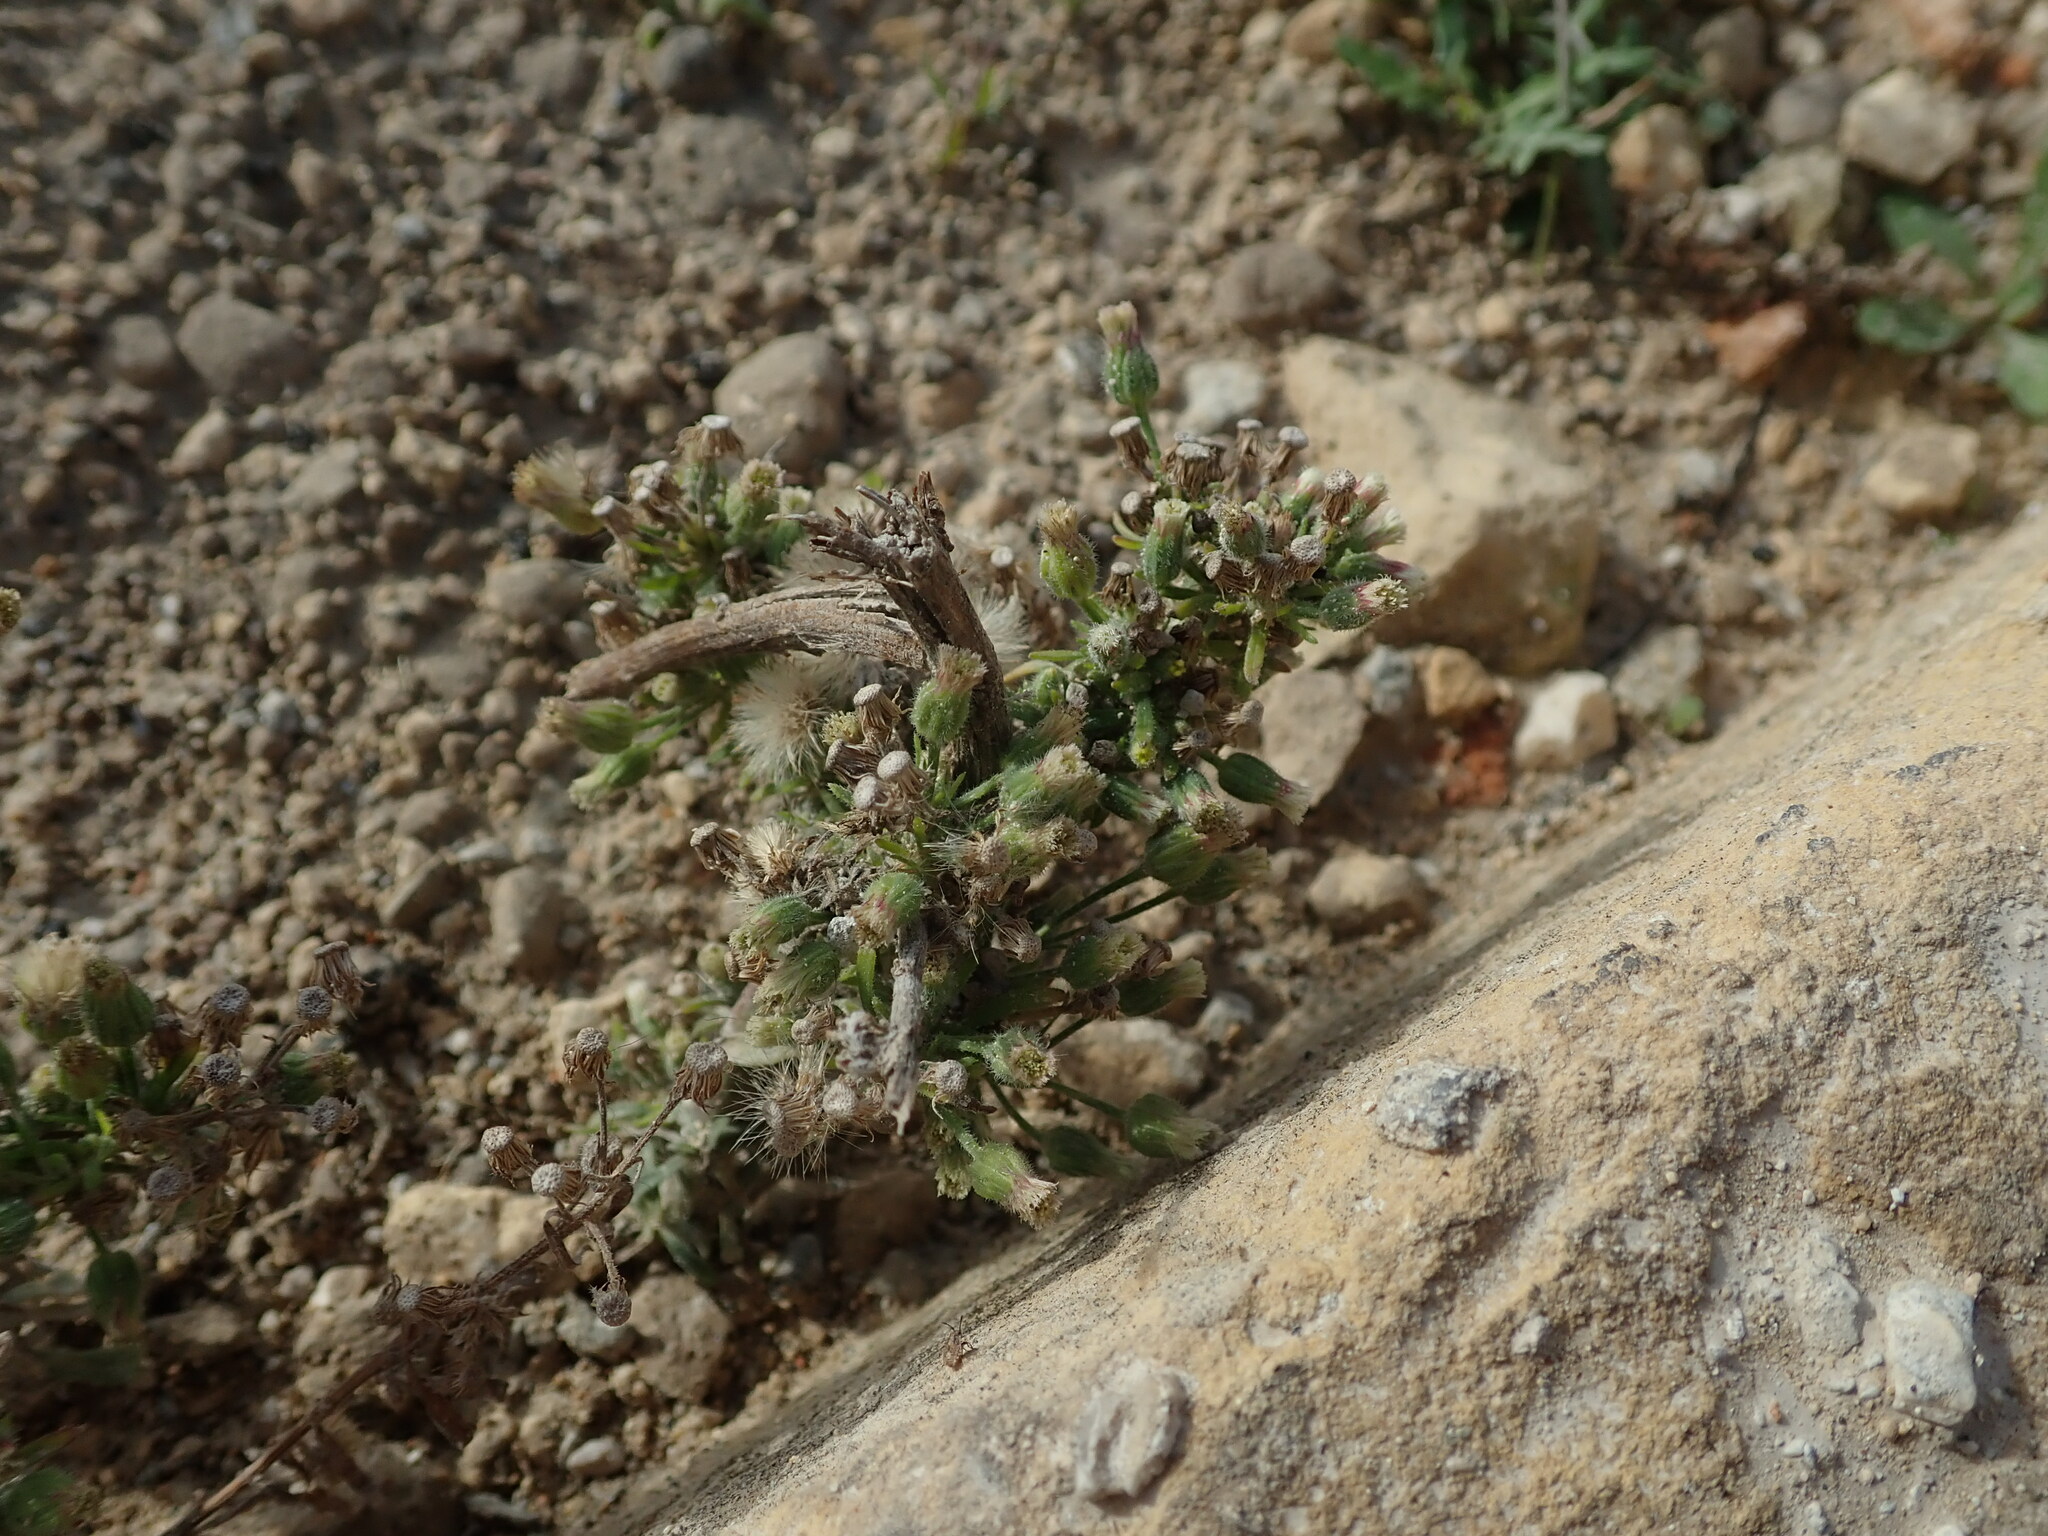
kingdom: Plantae
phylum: Tracheophyta
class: Magnoliopsida
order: Asterales
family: Asteraceae
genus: Erigeron
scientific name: Erigeron bonariensis
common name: Argentine fleabane
